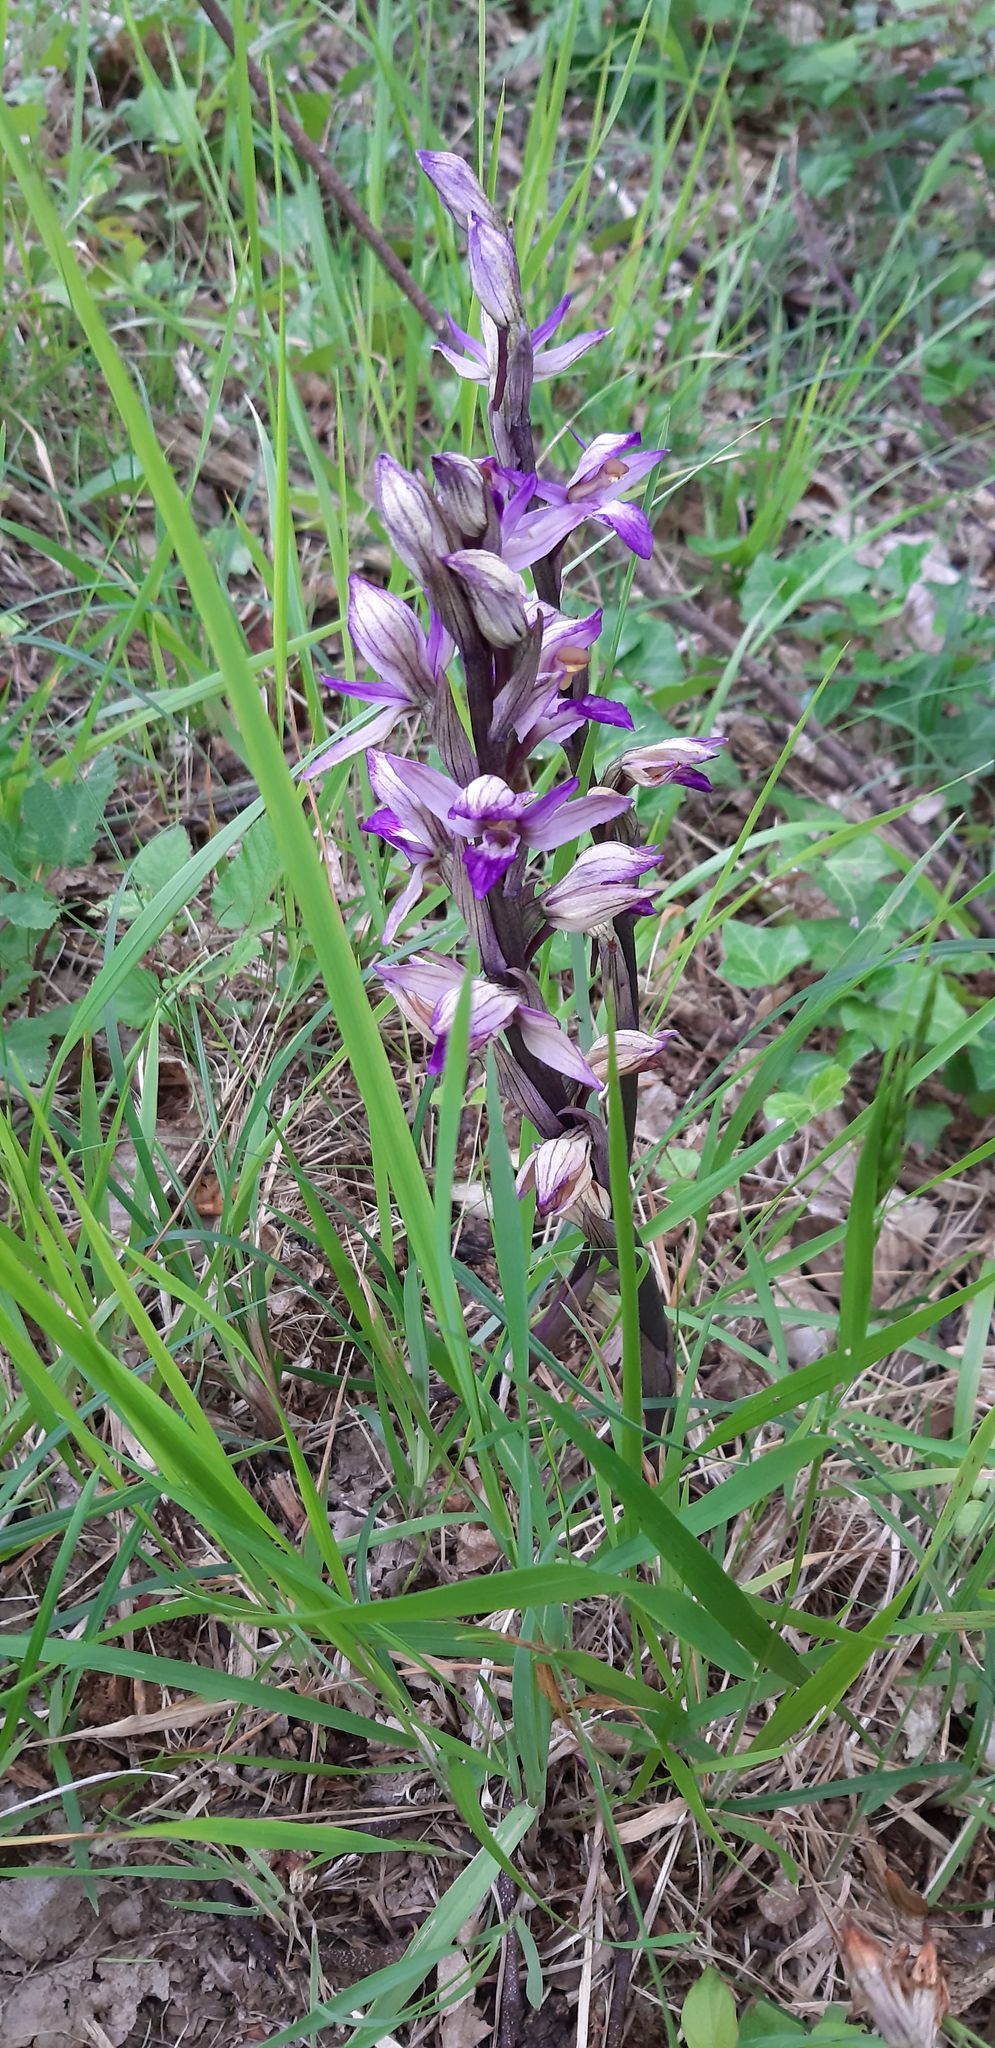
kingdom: Plantae
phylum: Tracheophyta
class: Liliopsida
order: Asparagales
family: Orchidaceae
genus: Limodorum
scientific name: Limodorum abortivum
